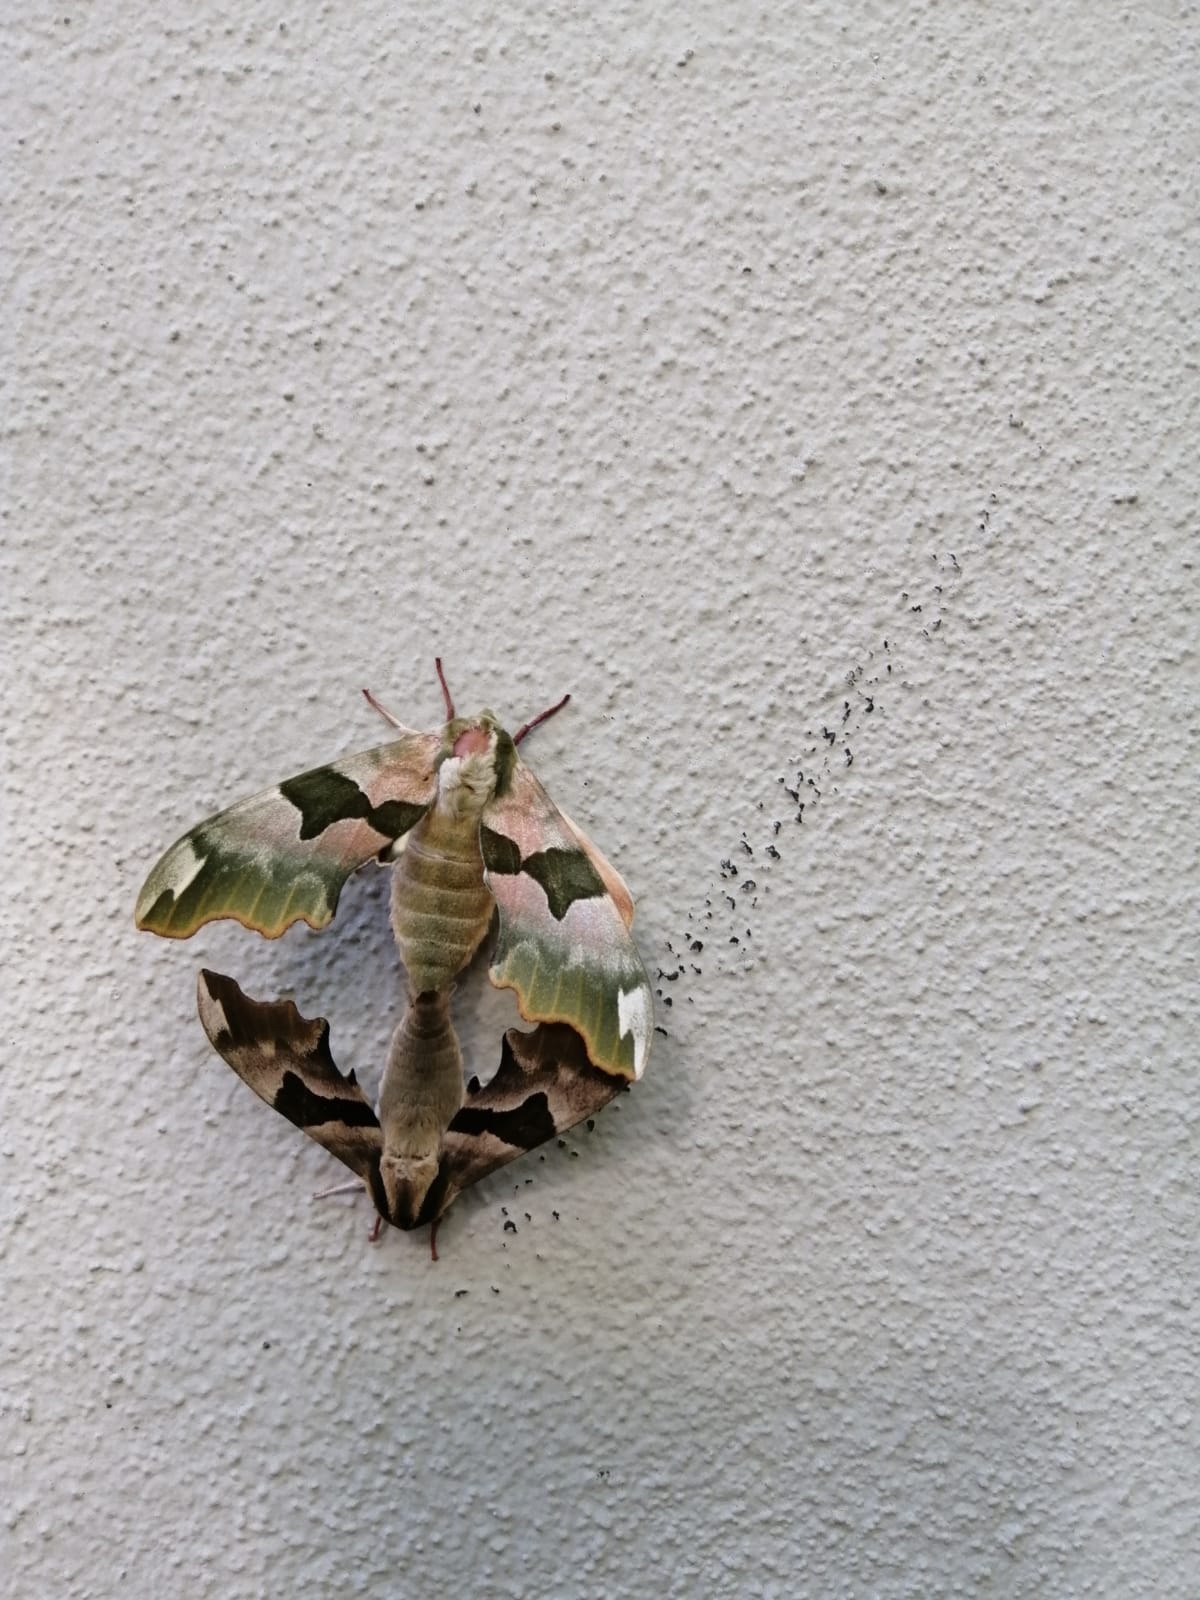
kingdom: Animalia
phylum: Arthropoda
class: Insecta
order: Lepidoptera
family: Sphingidae
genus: Mimas
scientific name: Mimas tiliae
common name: Lime hawk-moth
